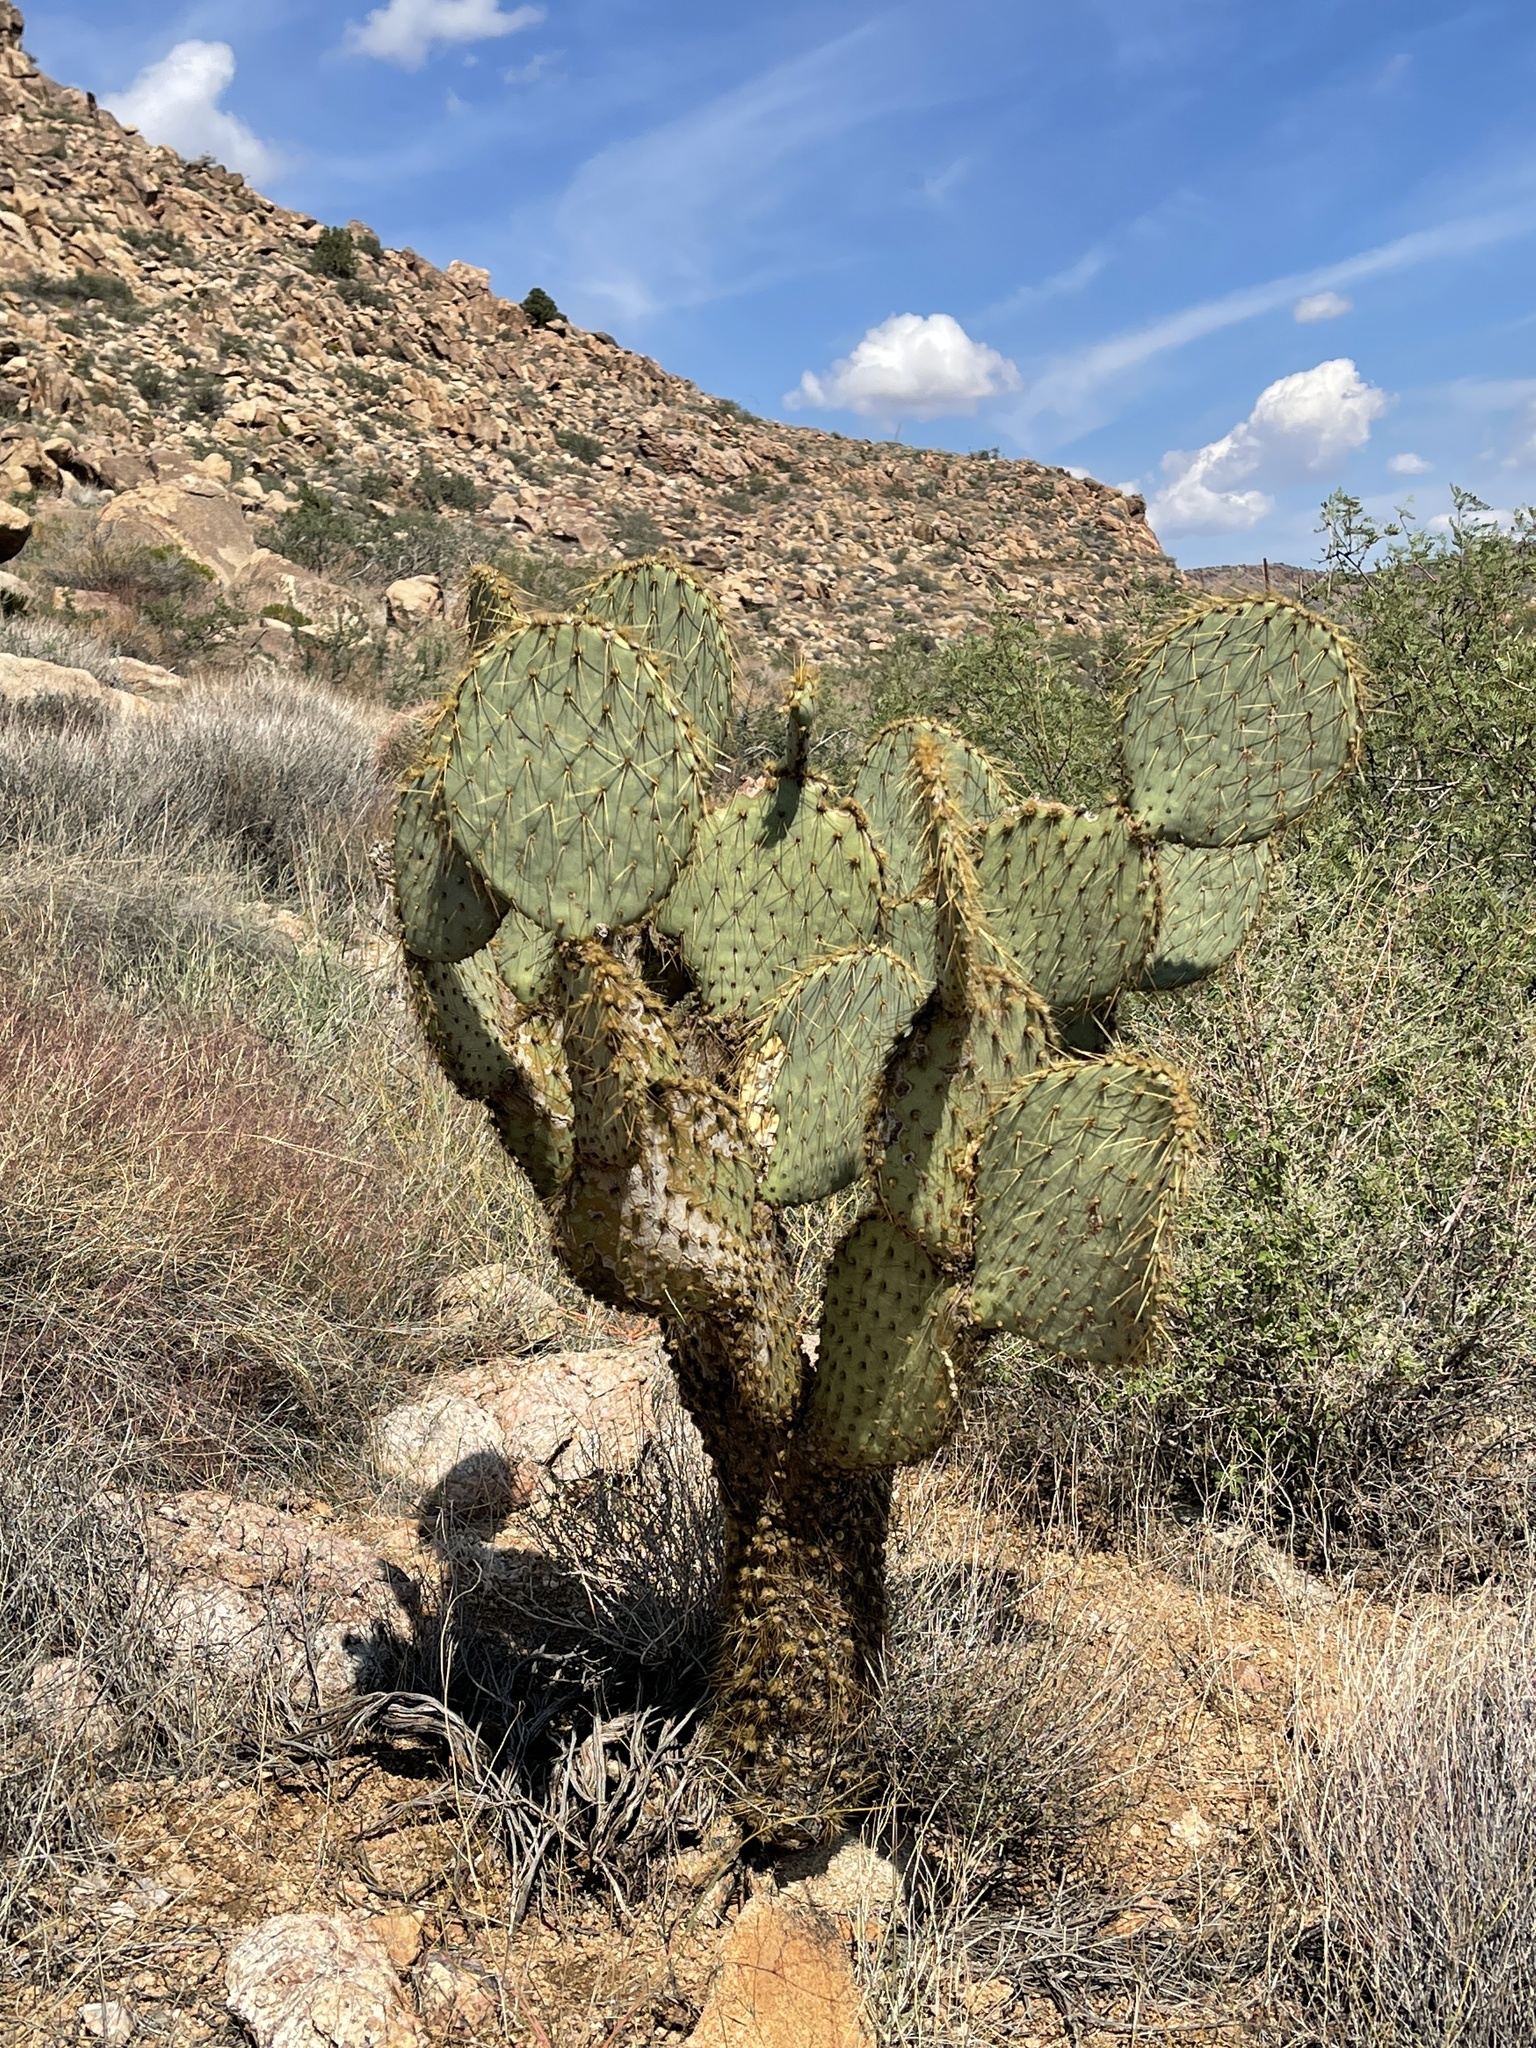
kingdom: Plantae
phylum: Tracheophyta
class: Magnoliopsida
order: Caryophyllales
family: Cactaceae
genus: Opuntia
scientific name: Opuntia chlorotica
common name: Dollar-joint prickly-pear
